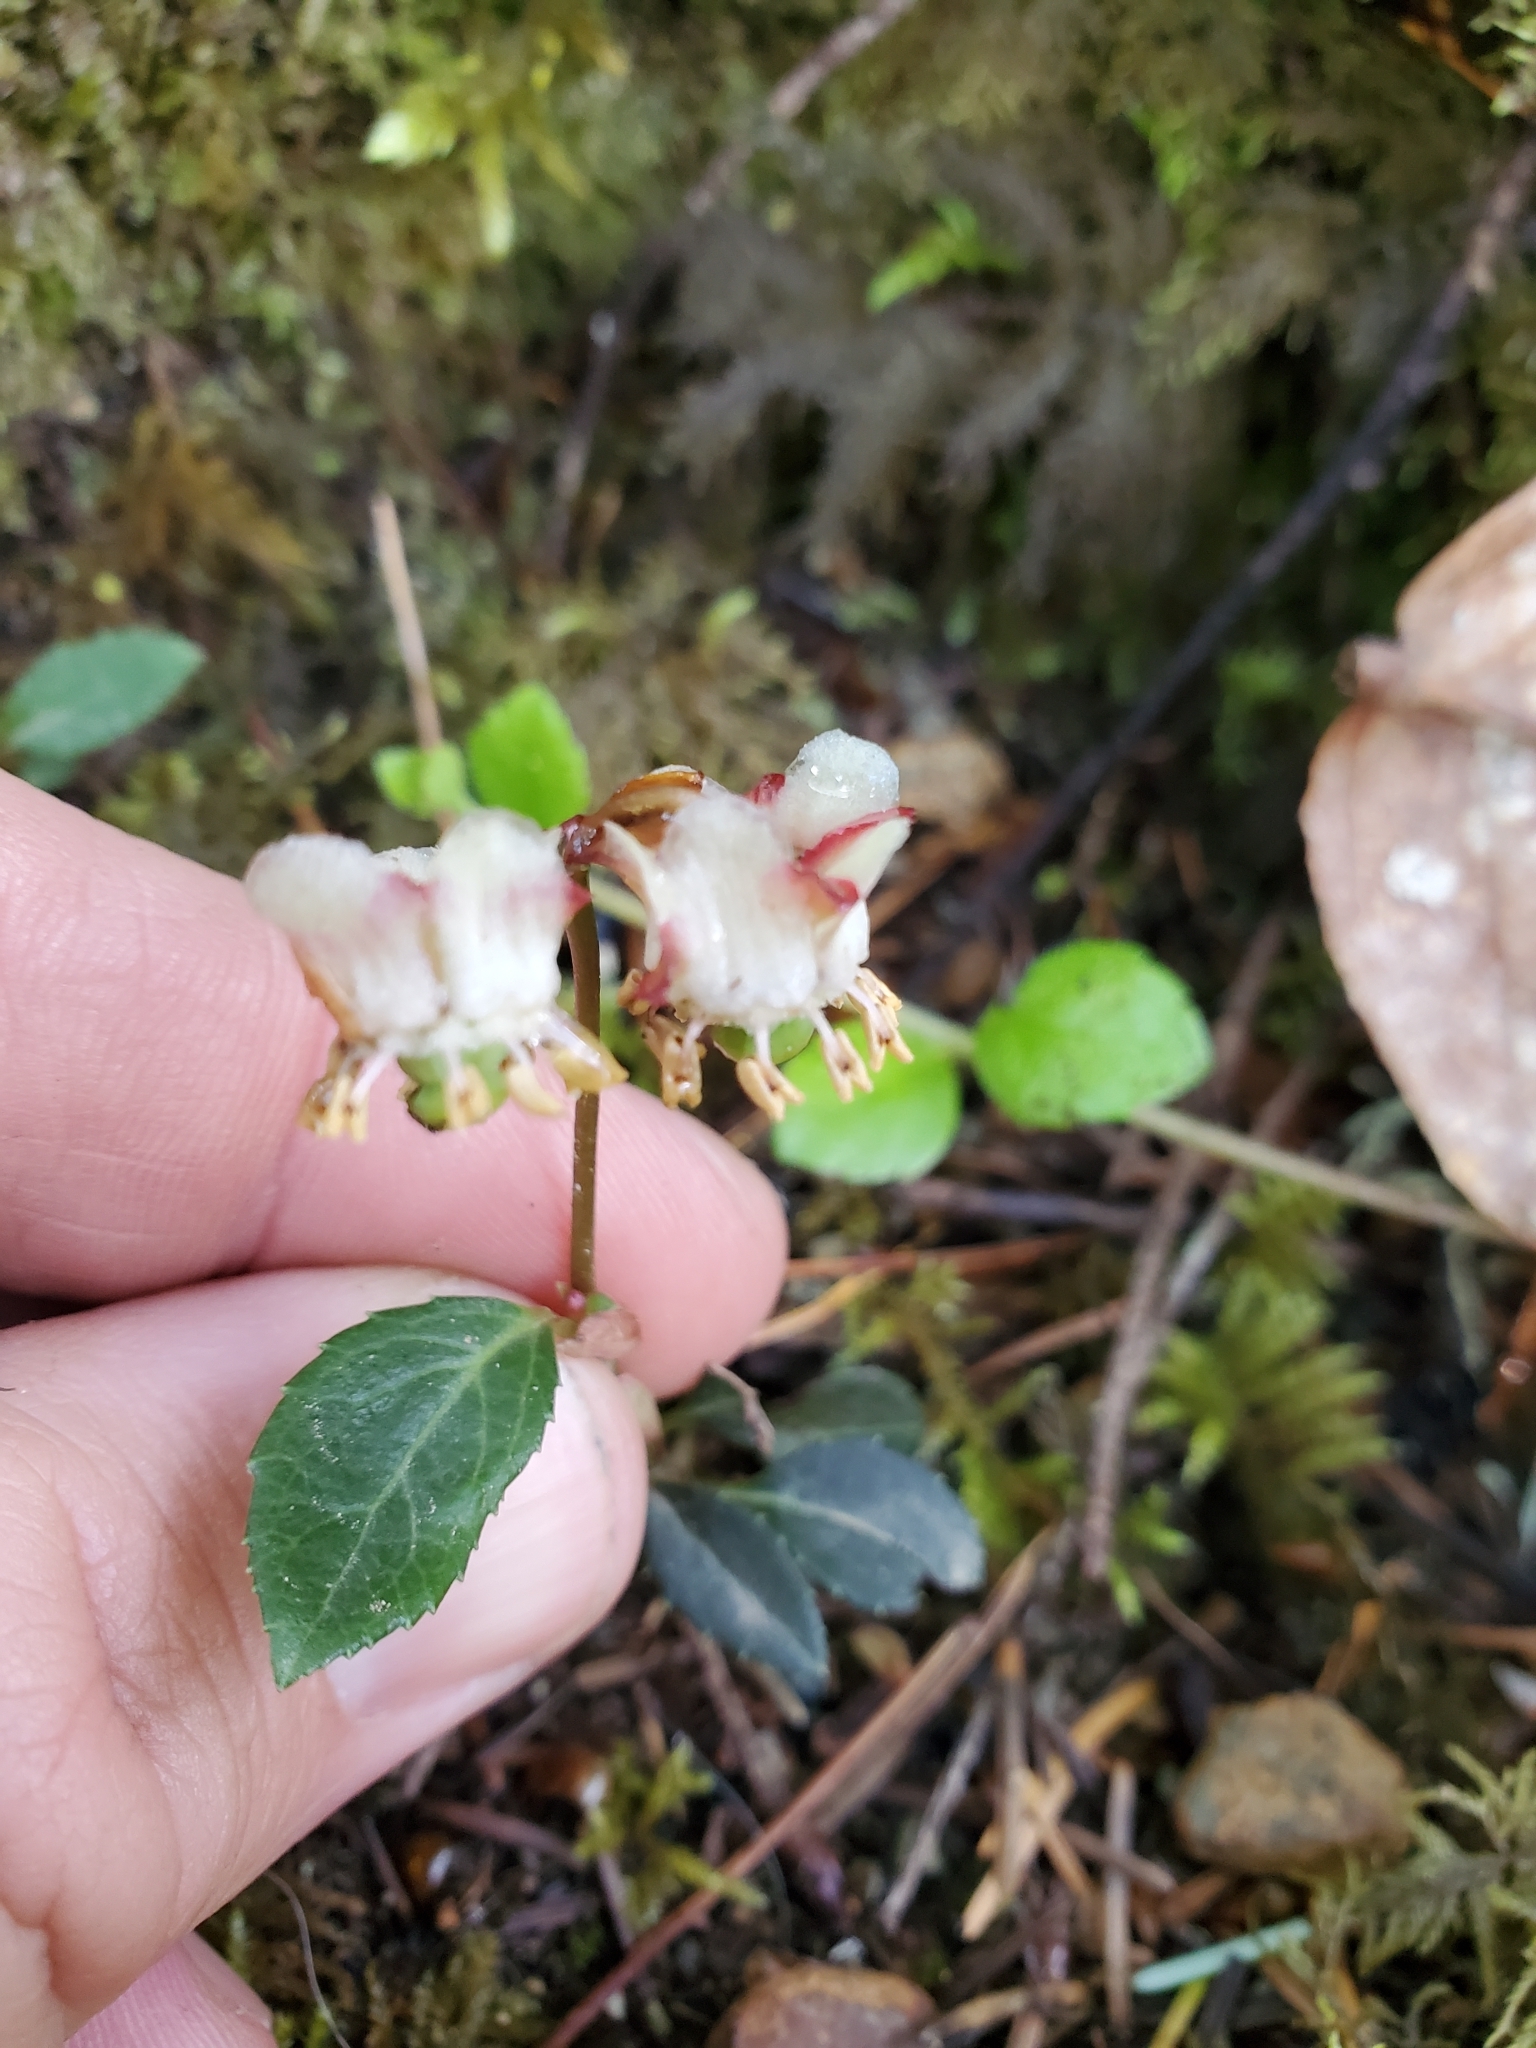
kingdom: Plantae
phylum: Tracheophyta
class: Magnoliopsida
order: Ericales
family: Ericaceae
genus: Chimaphila
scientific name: Chimaphila menziesii
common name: Menzies' pipsissewa
